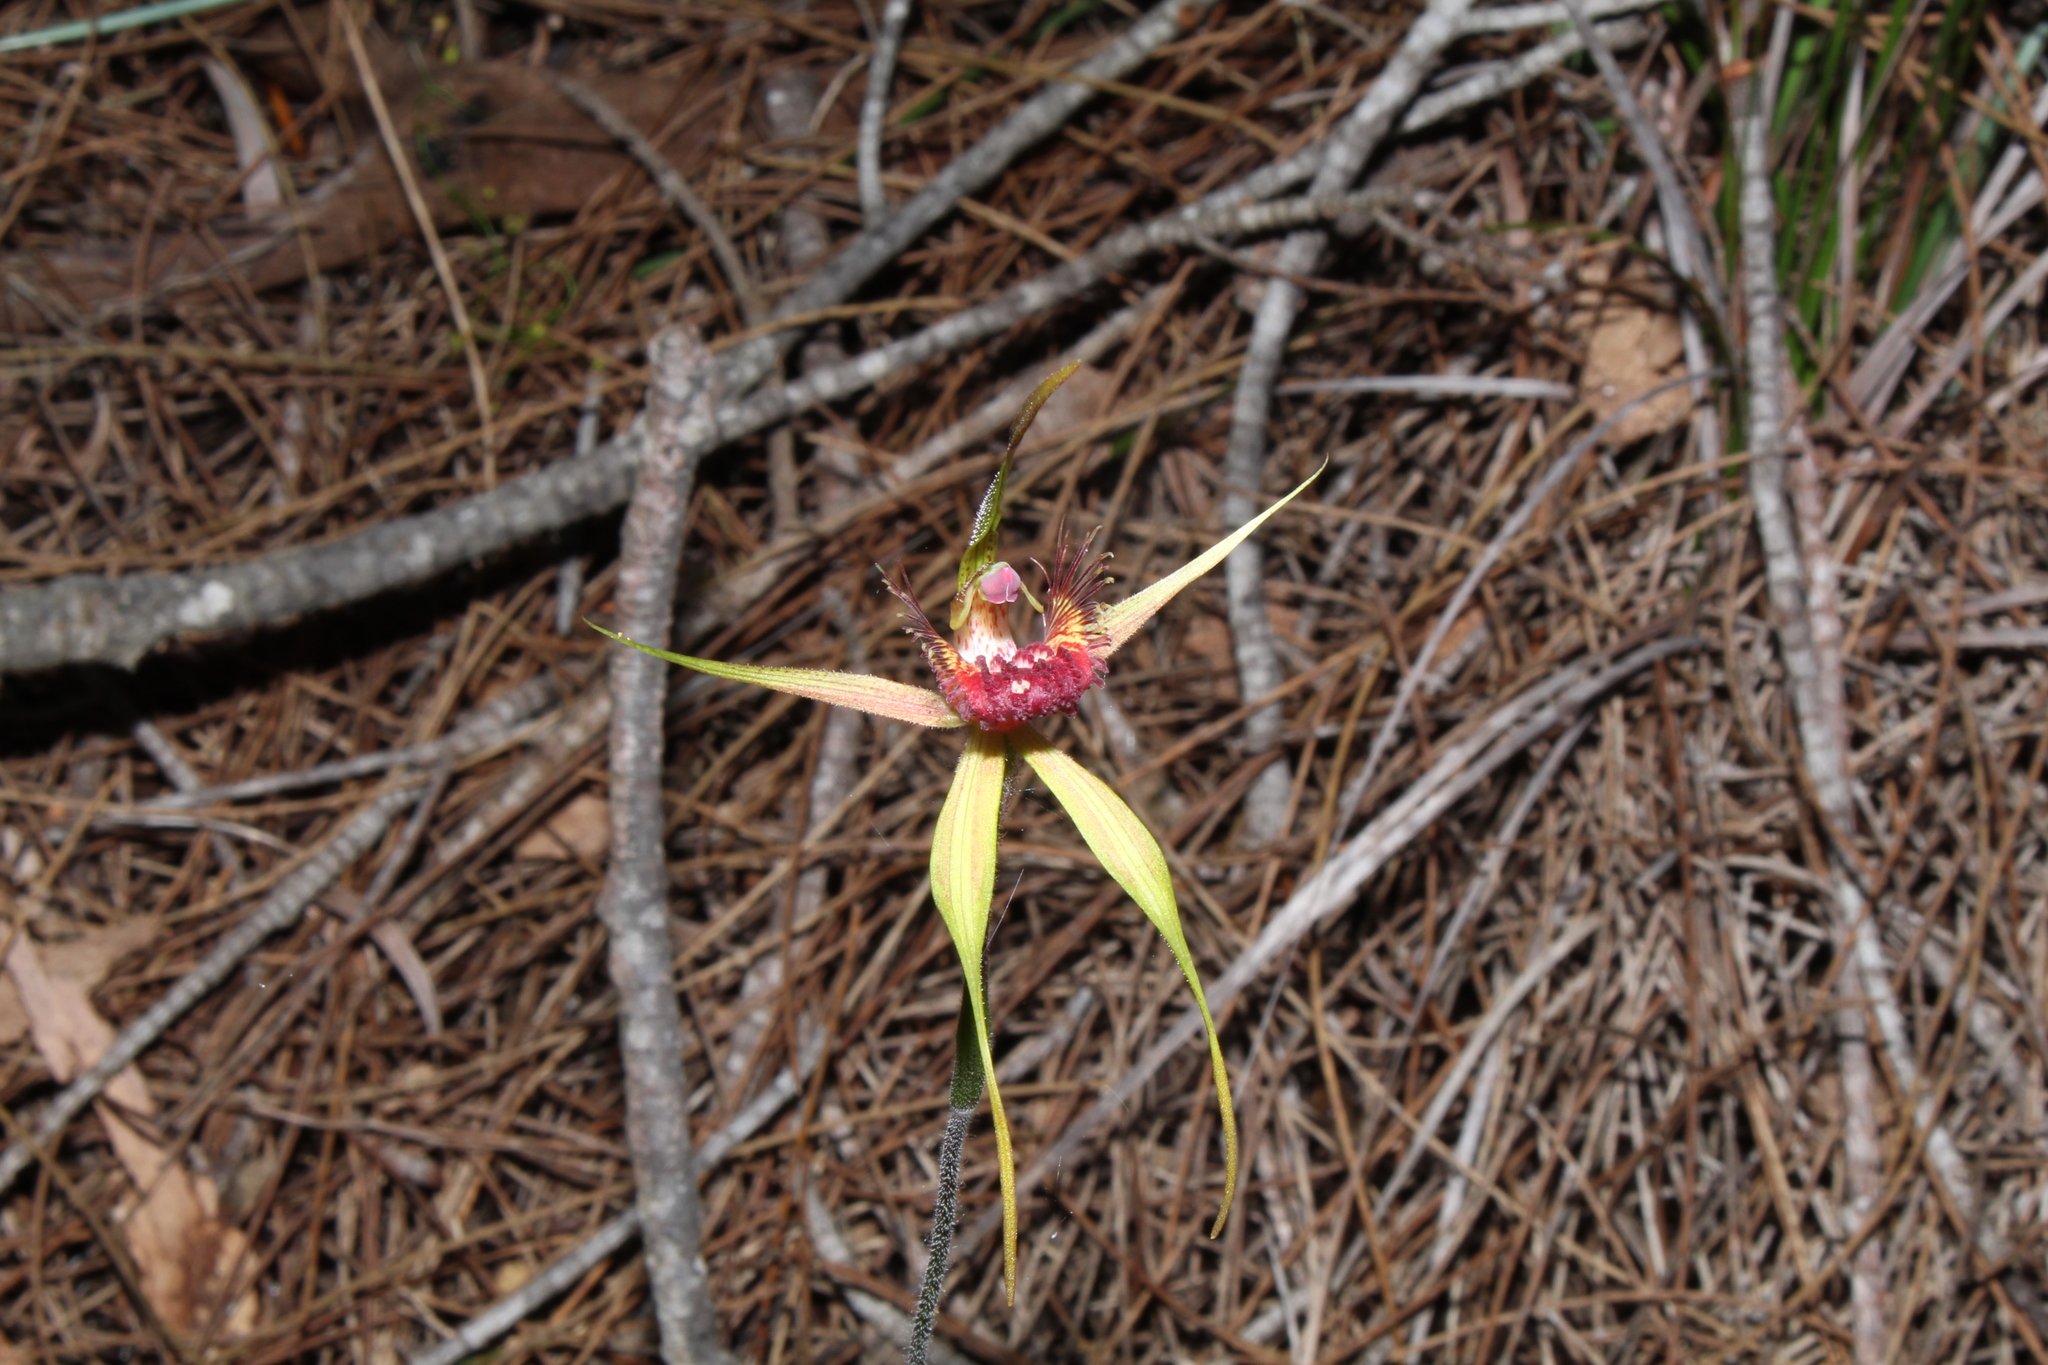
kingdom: Plantae
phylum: Tracheophyta
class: Liliopsida
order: Asparagales
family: Orchidaceae
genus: Caladenia
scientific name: Caladenia pectinata
